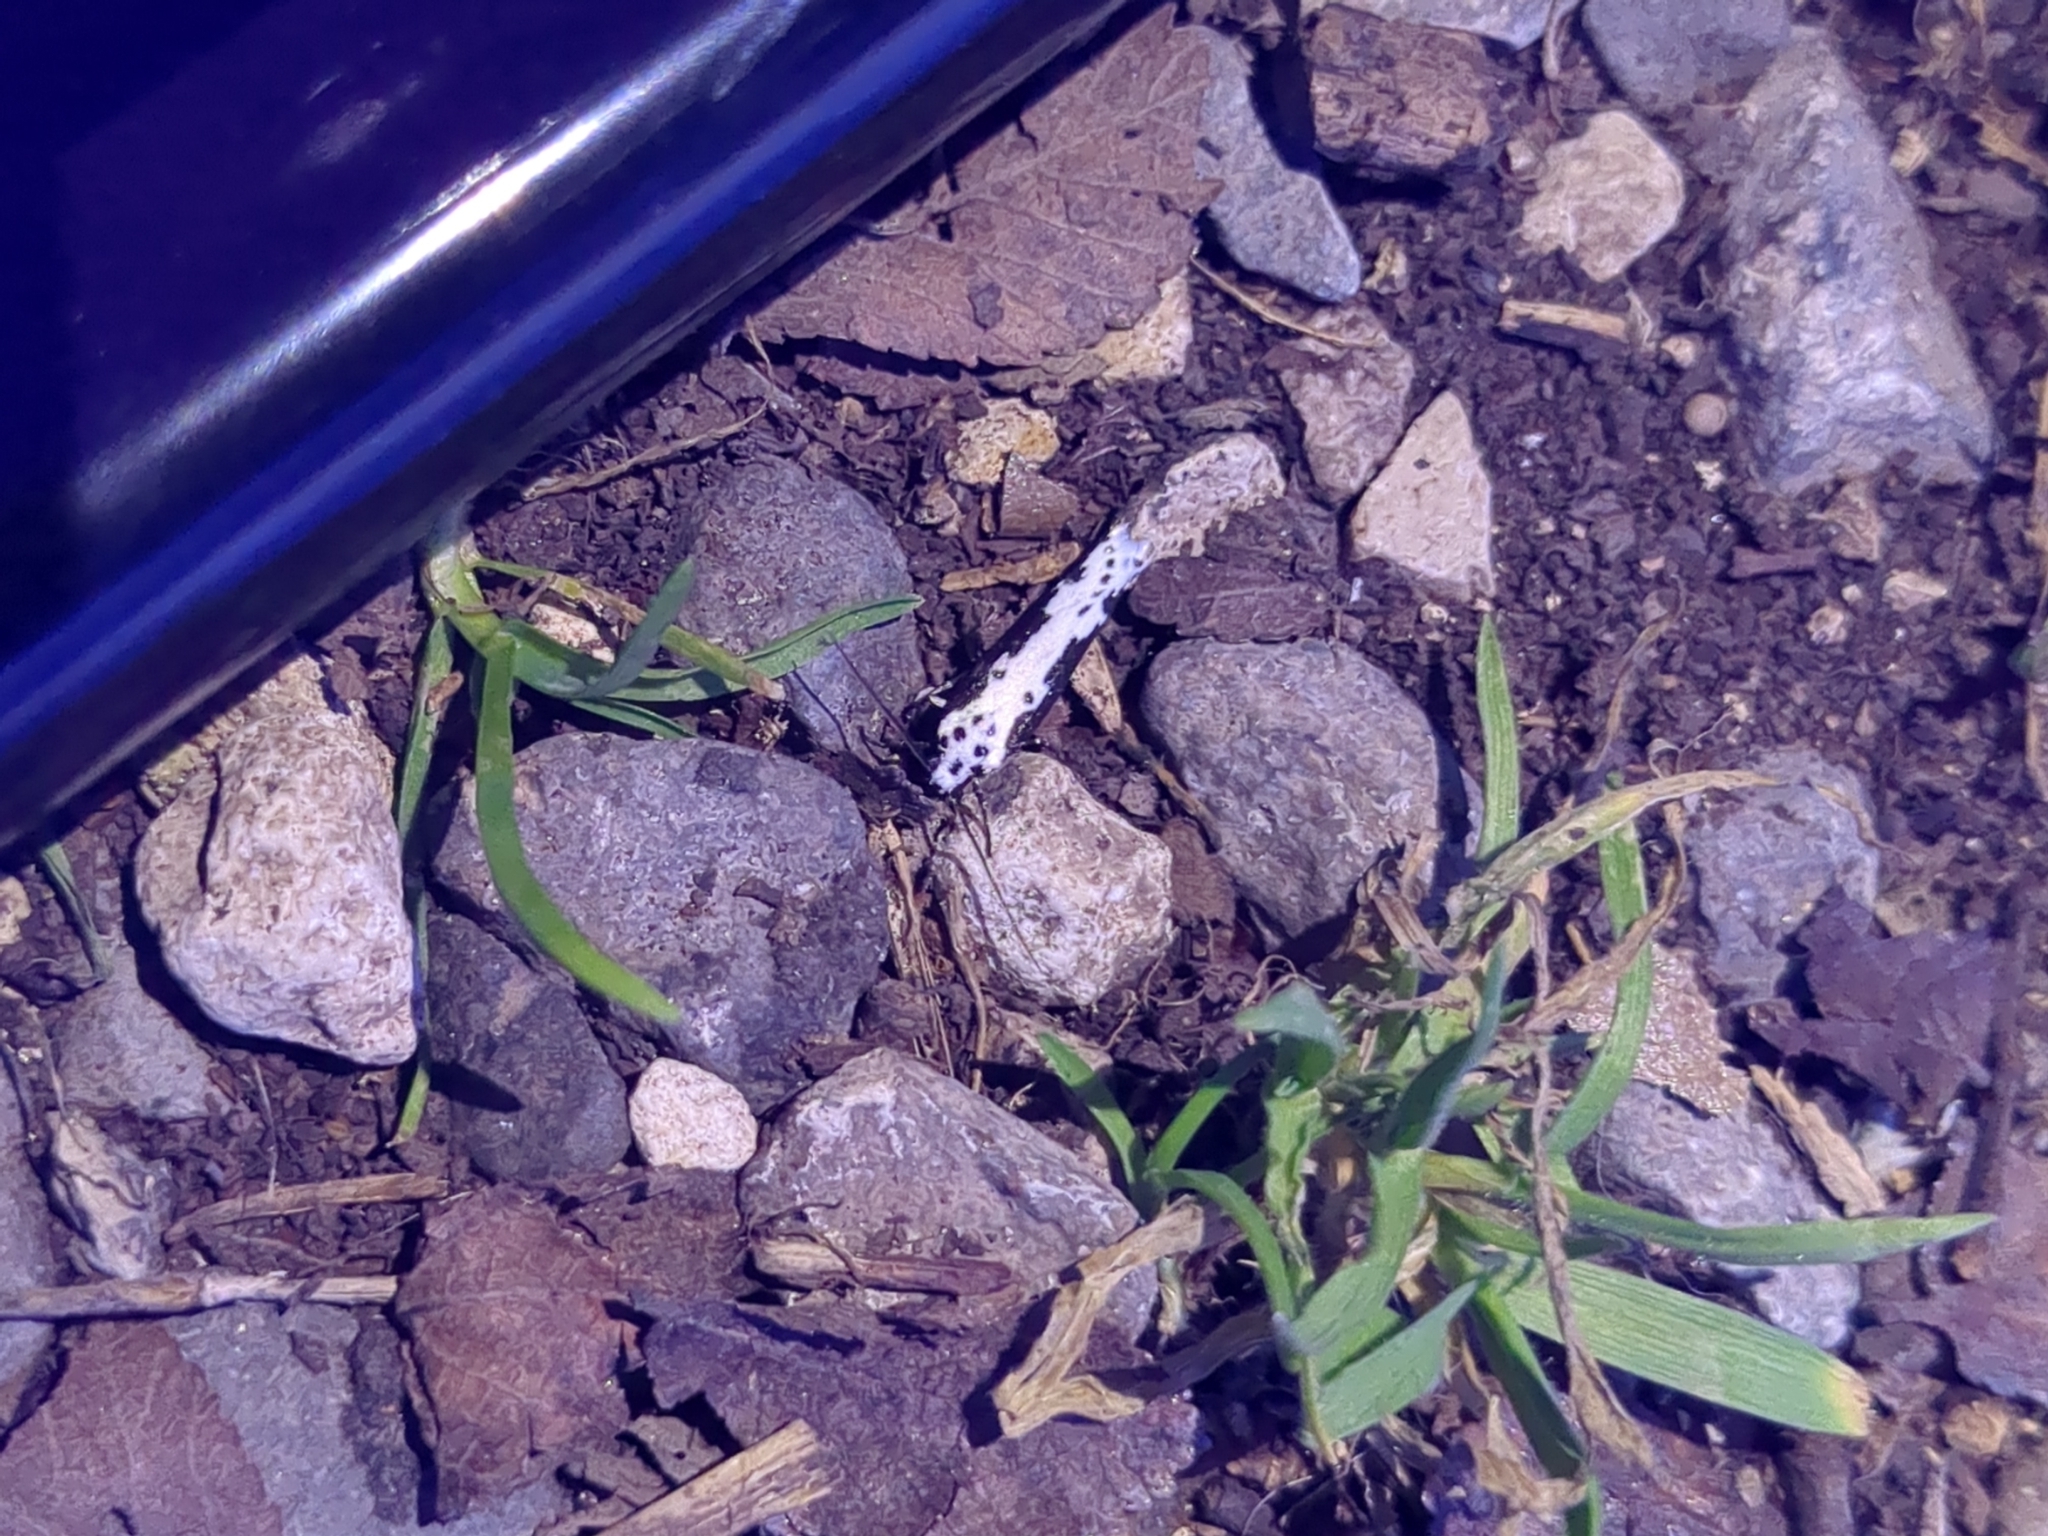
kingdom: Animalia
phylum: Arthropoda
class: Insecta
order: Lepidoptera
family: Ethmiidae
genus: Ethmia
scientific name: Ethmia semilugens
